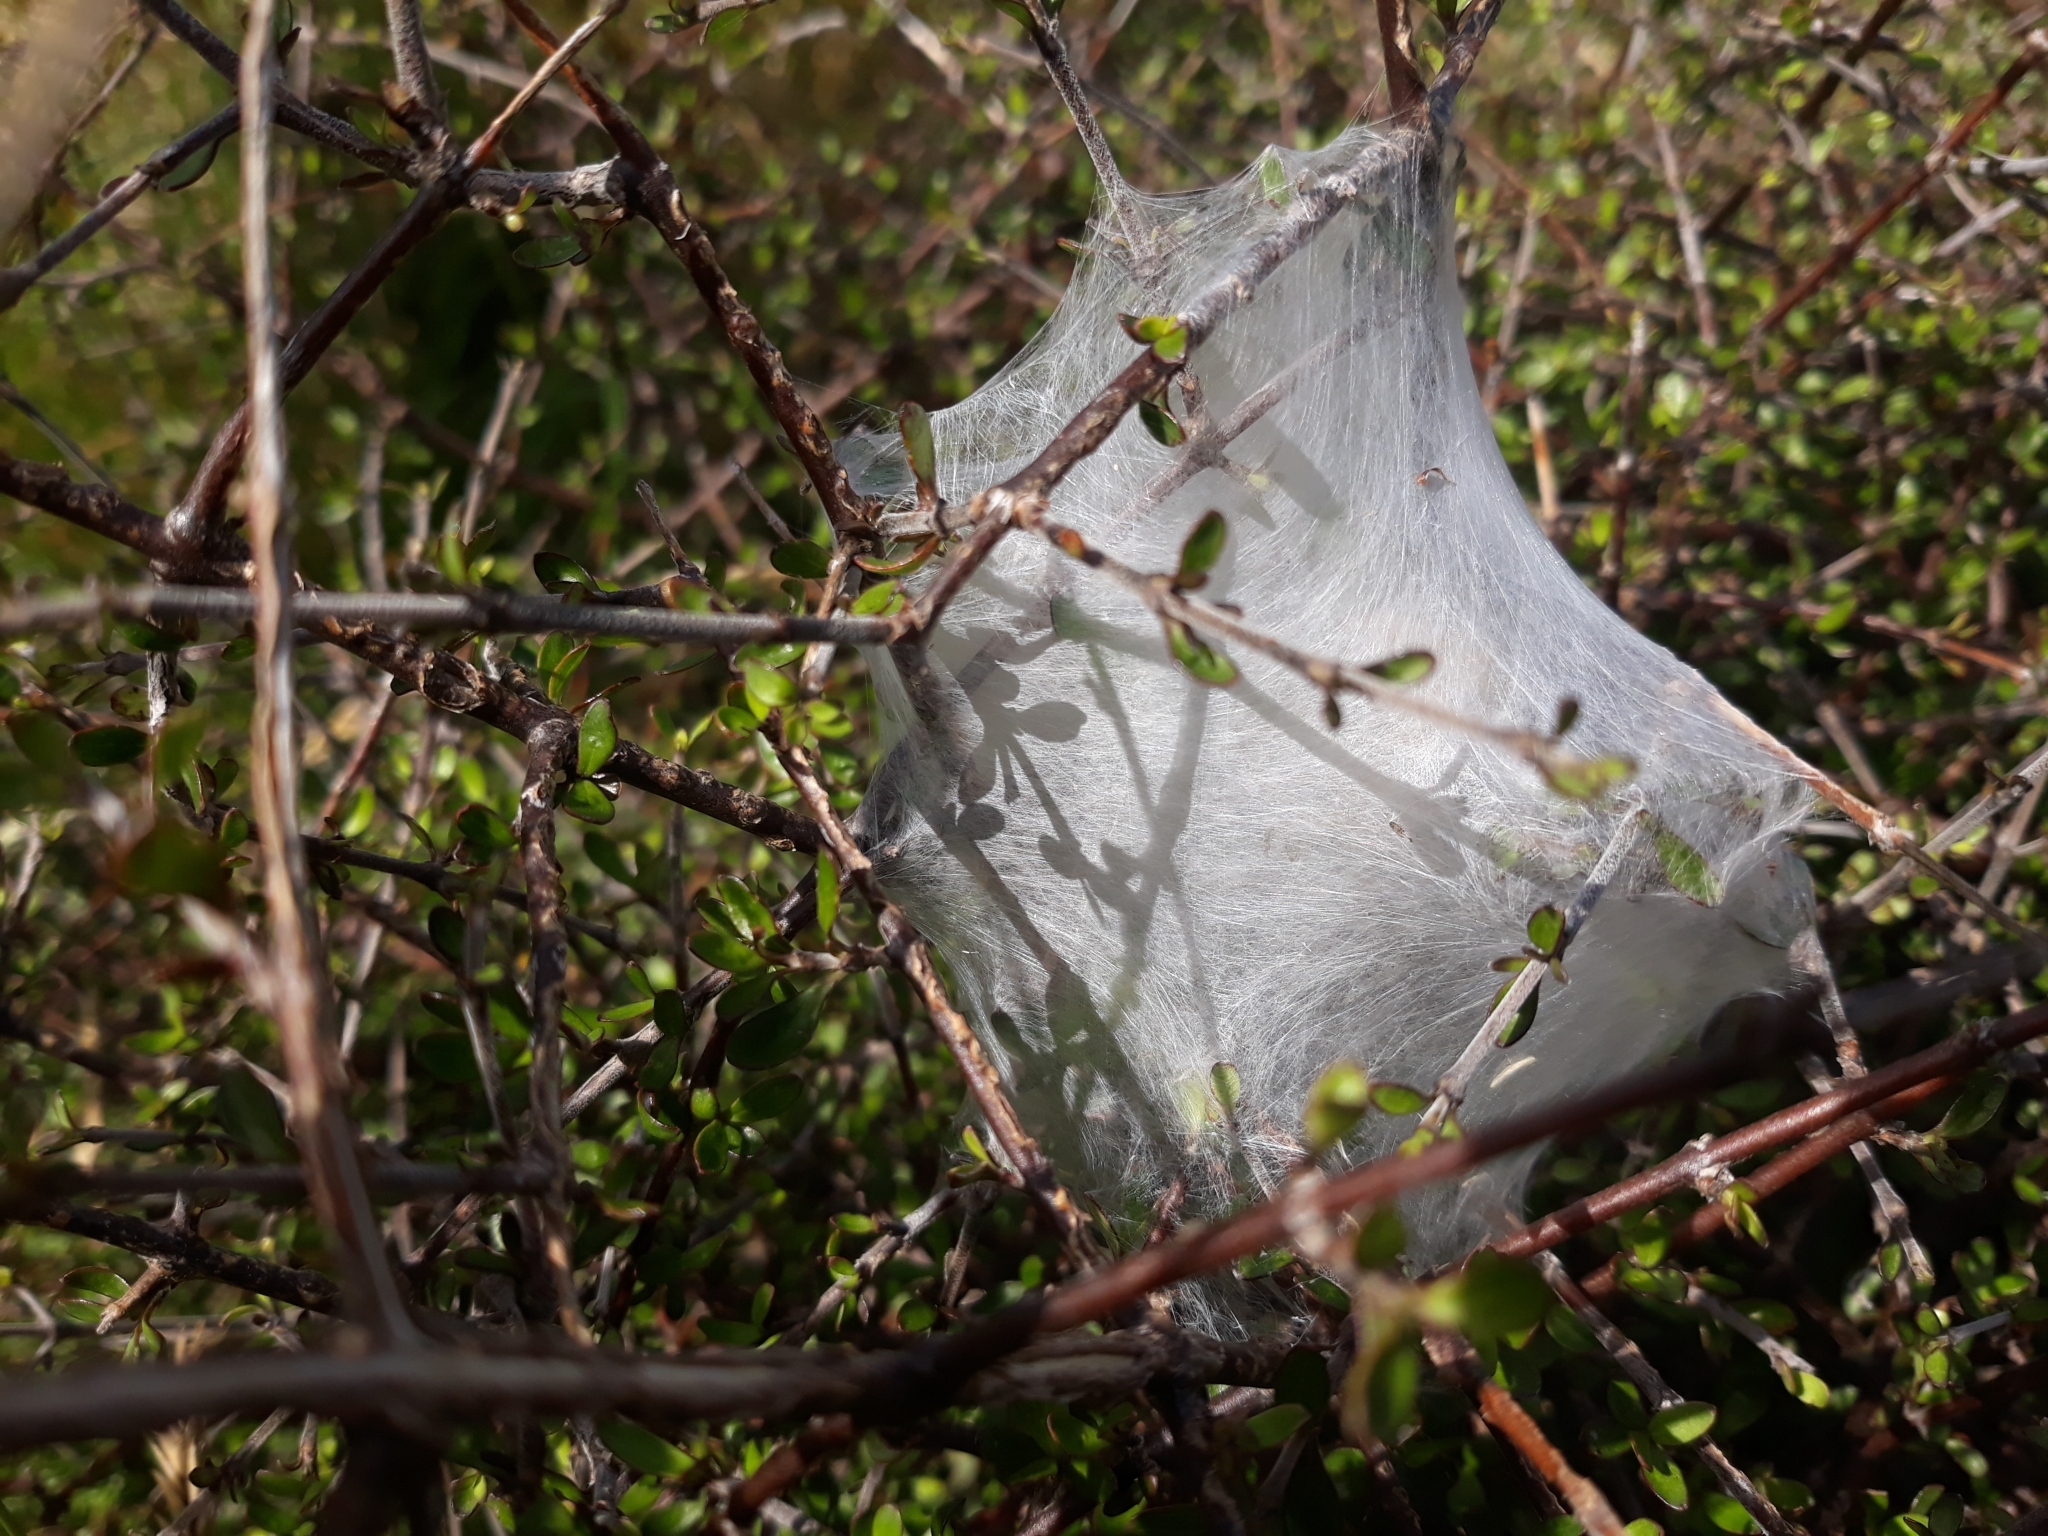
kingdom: Animalia
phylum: Arthropoda
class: Arachnida
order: Araneae
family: Pisauridae
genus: Dolomedes
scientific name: Dolomedes minor
